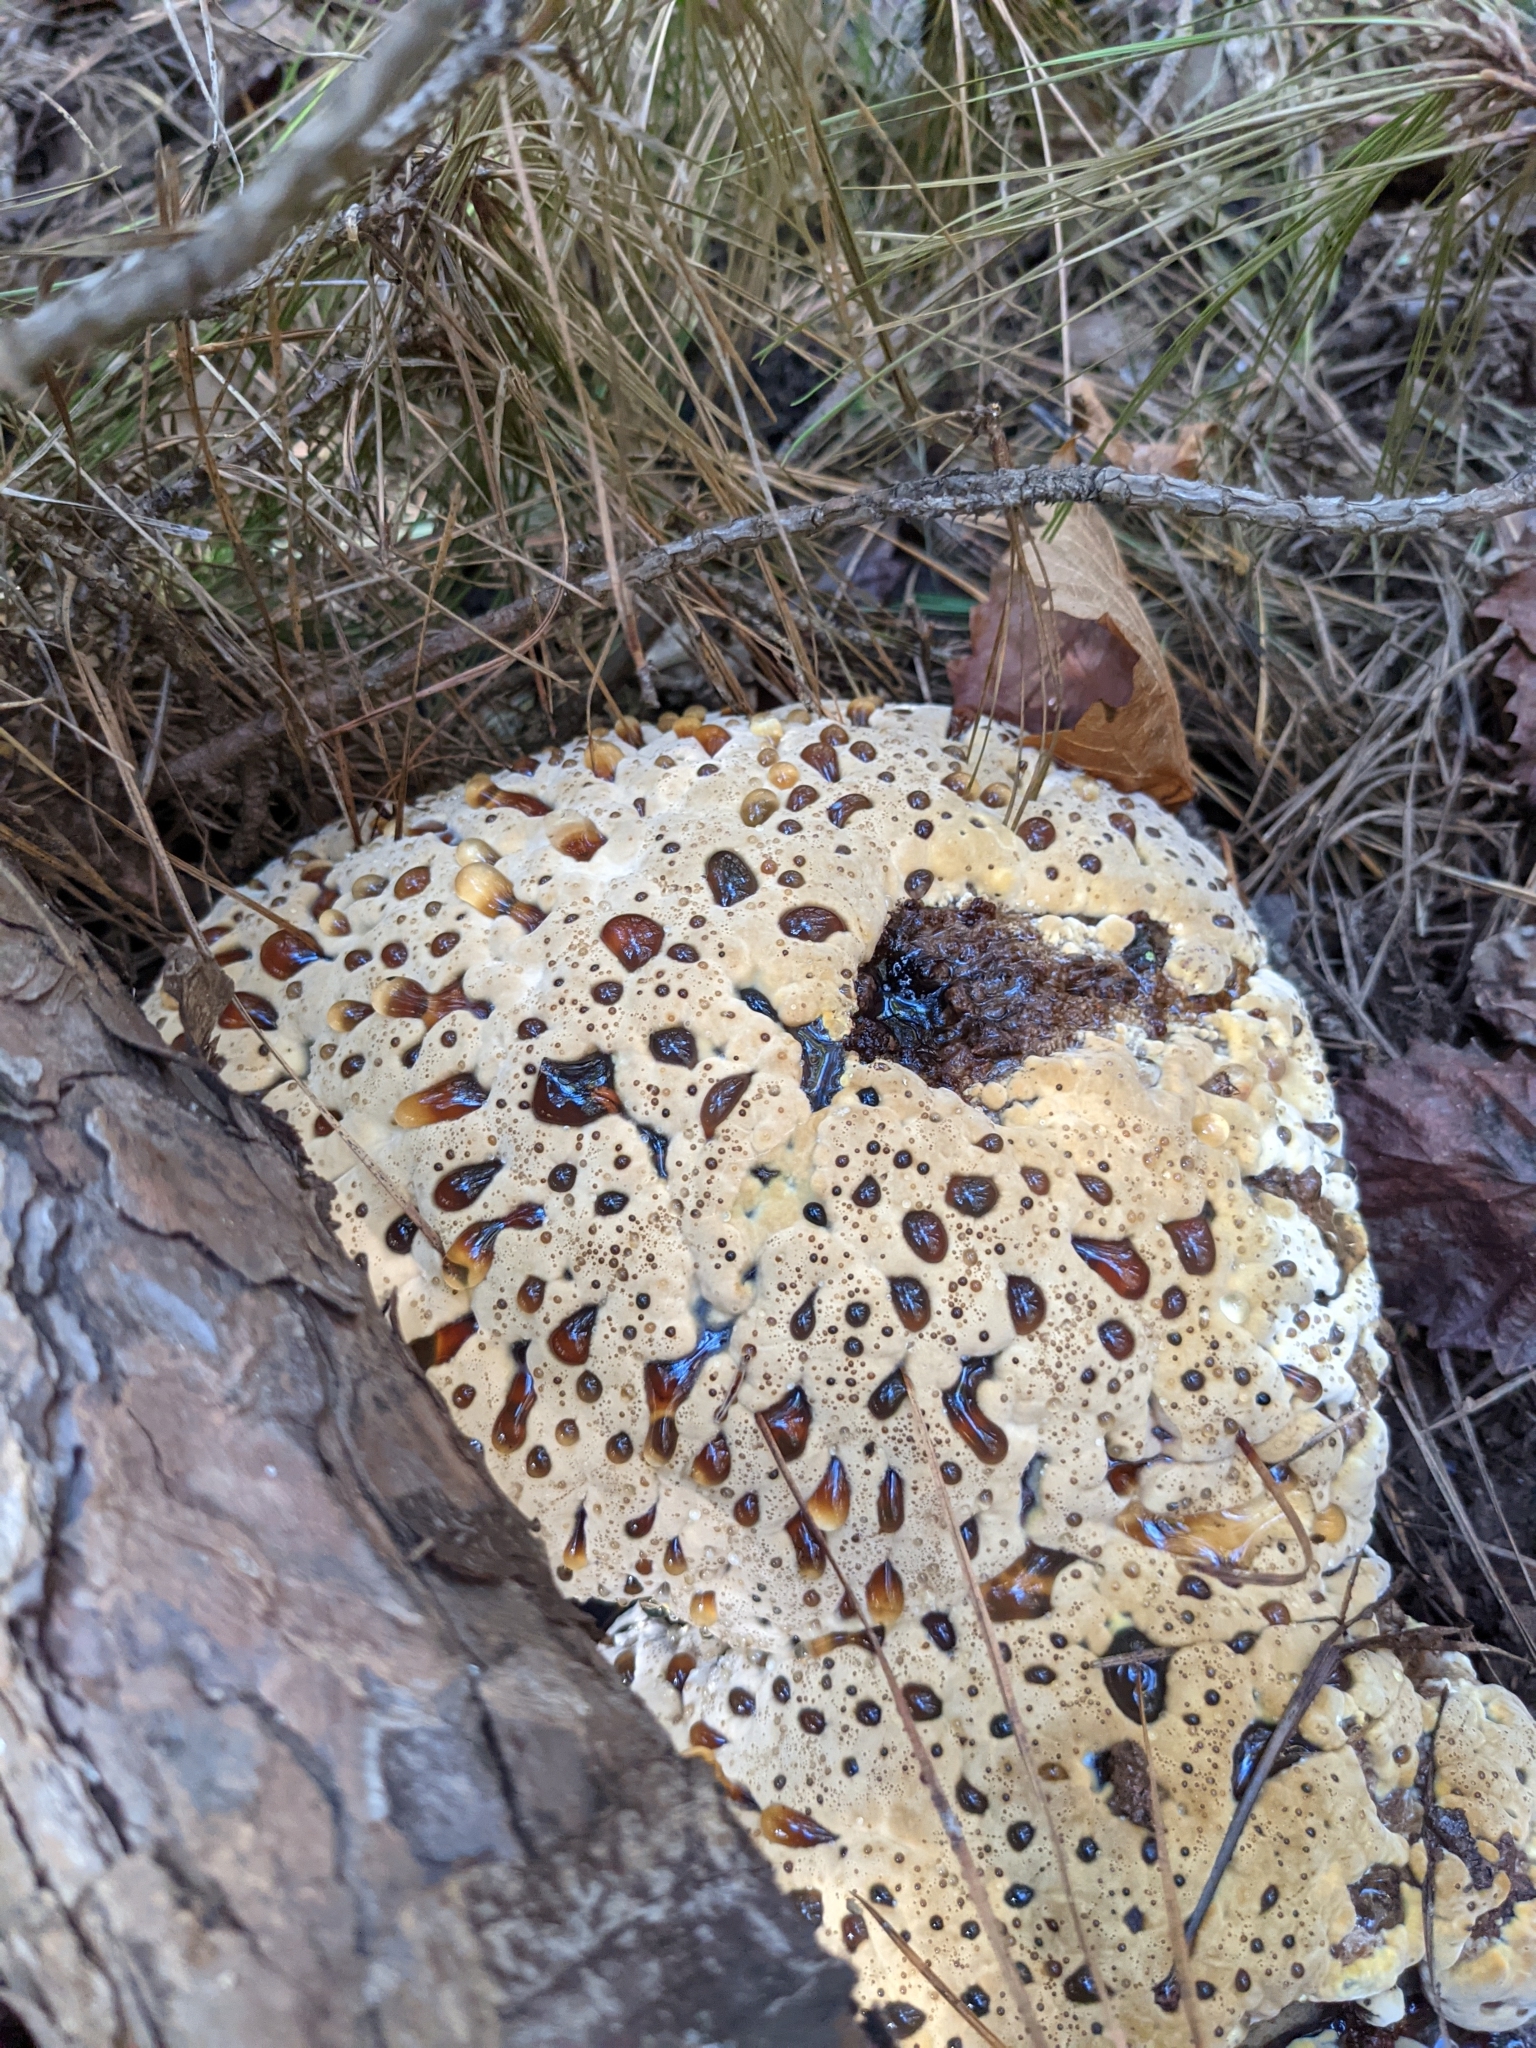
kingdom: Fungi
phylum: Basidiomycota
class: Agaricomycetes
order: Hymenochaetales
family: Hymenochaetaceae
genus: Pseudoinonotus
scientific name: Pseudoinonotus dryadeus
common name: Oak bracket
